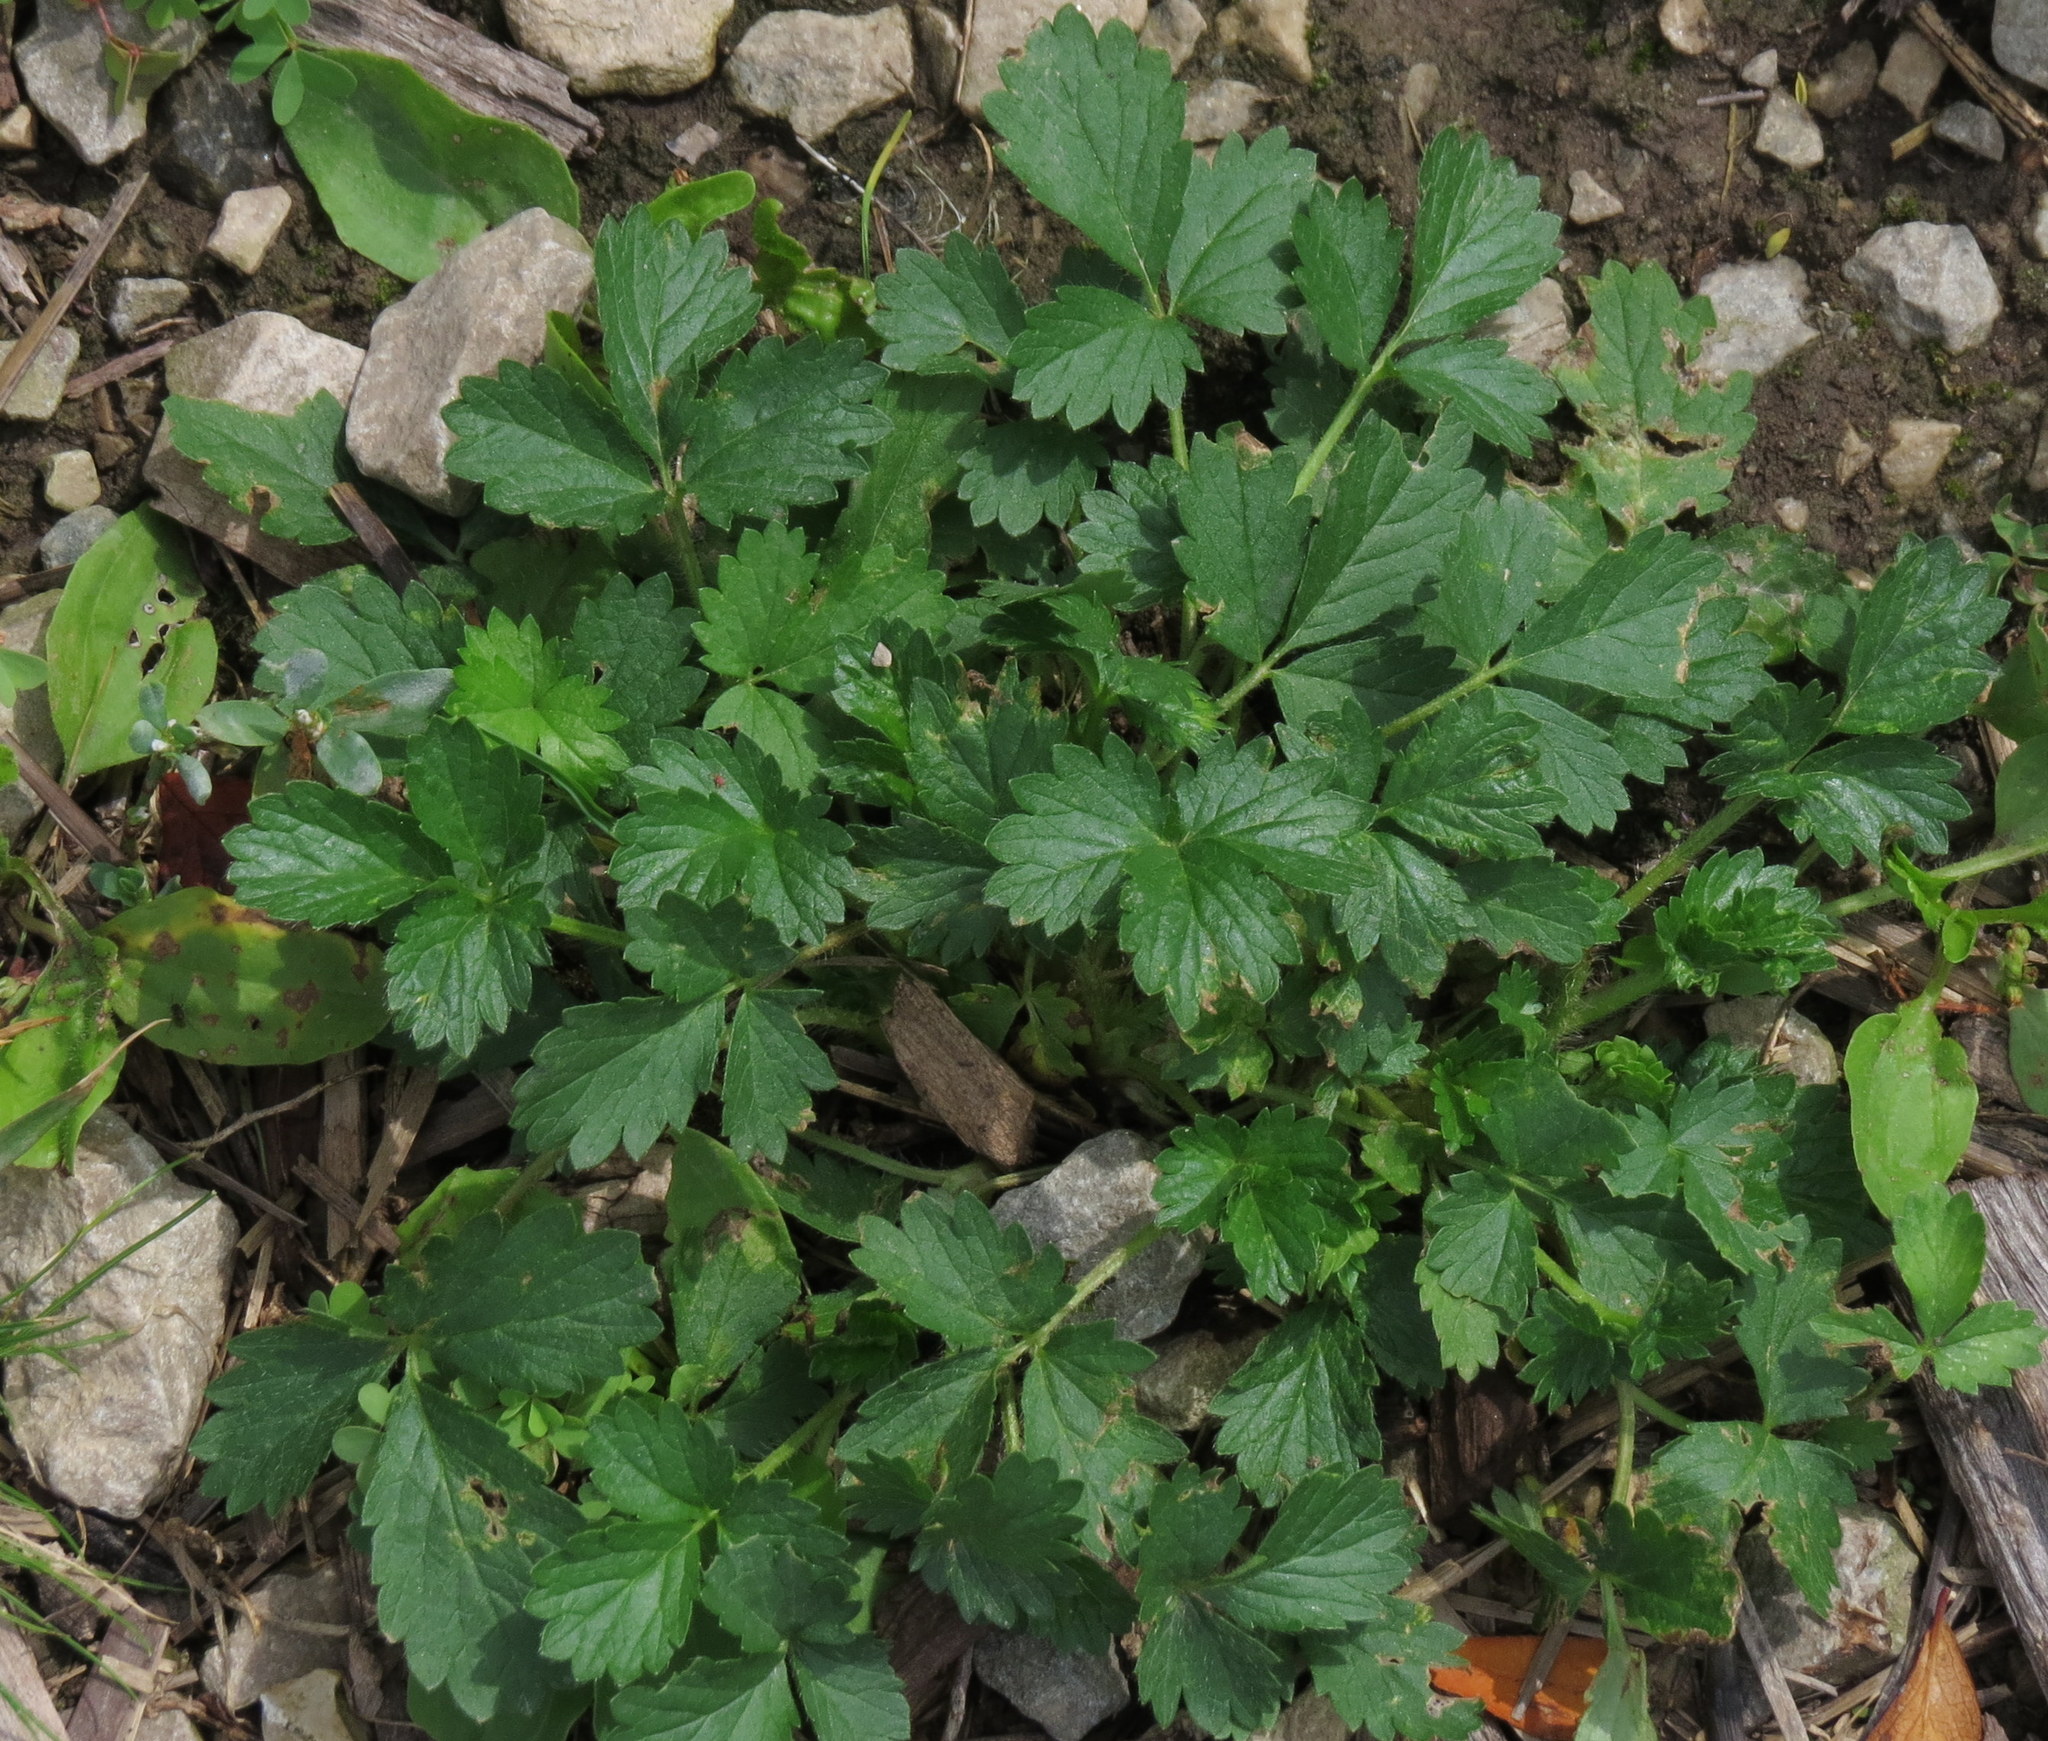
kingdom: Plantae
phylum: Tracheophyta
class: Magnoliopsida
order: Rosales
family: Rosaceae
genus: Potentilla
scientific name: Potentilla norvegica
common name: Ternate-leaved cinquefoil
